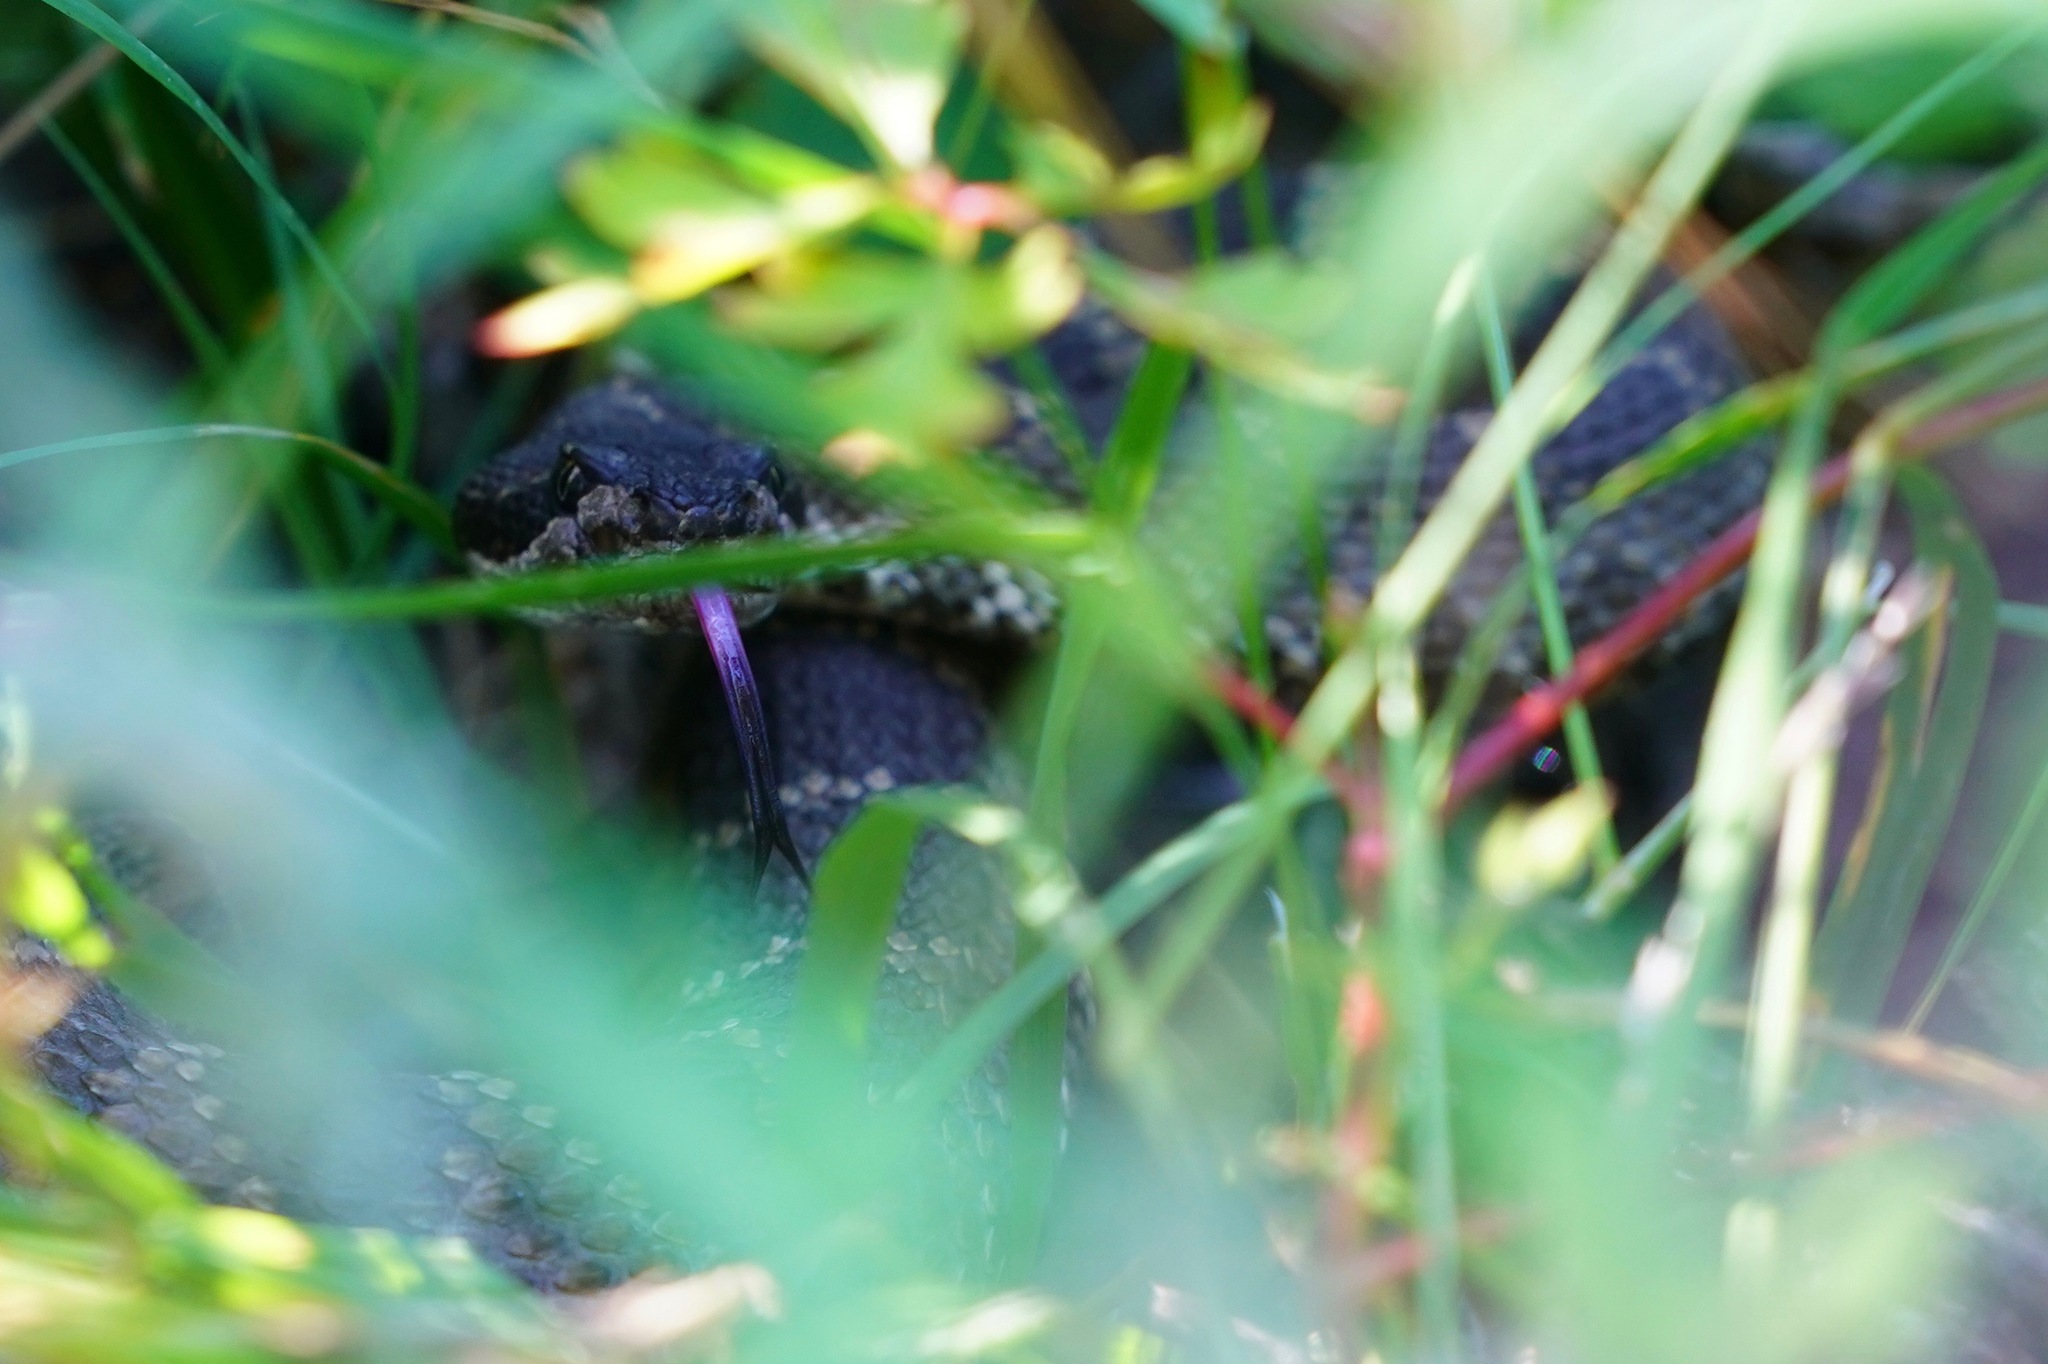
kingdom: Animalia
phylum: Chordata
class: Squamata
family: Viperidae
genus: Crotalus
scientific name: Crotalus oreganus
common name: Abyssus
